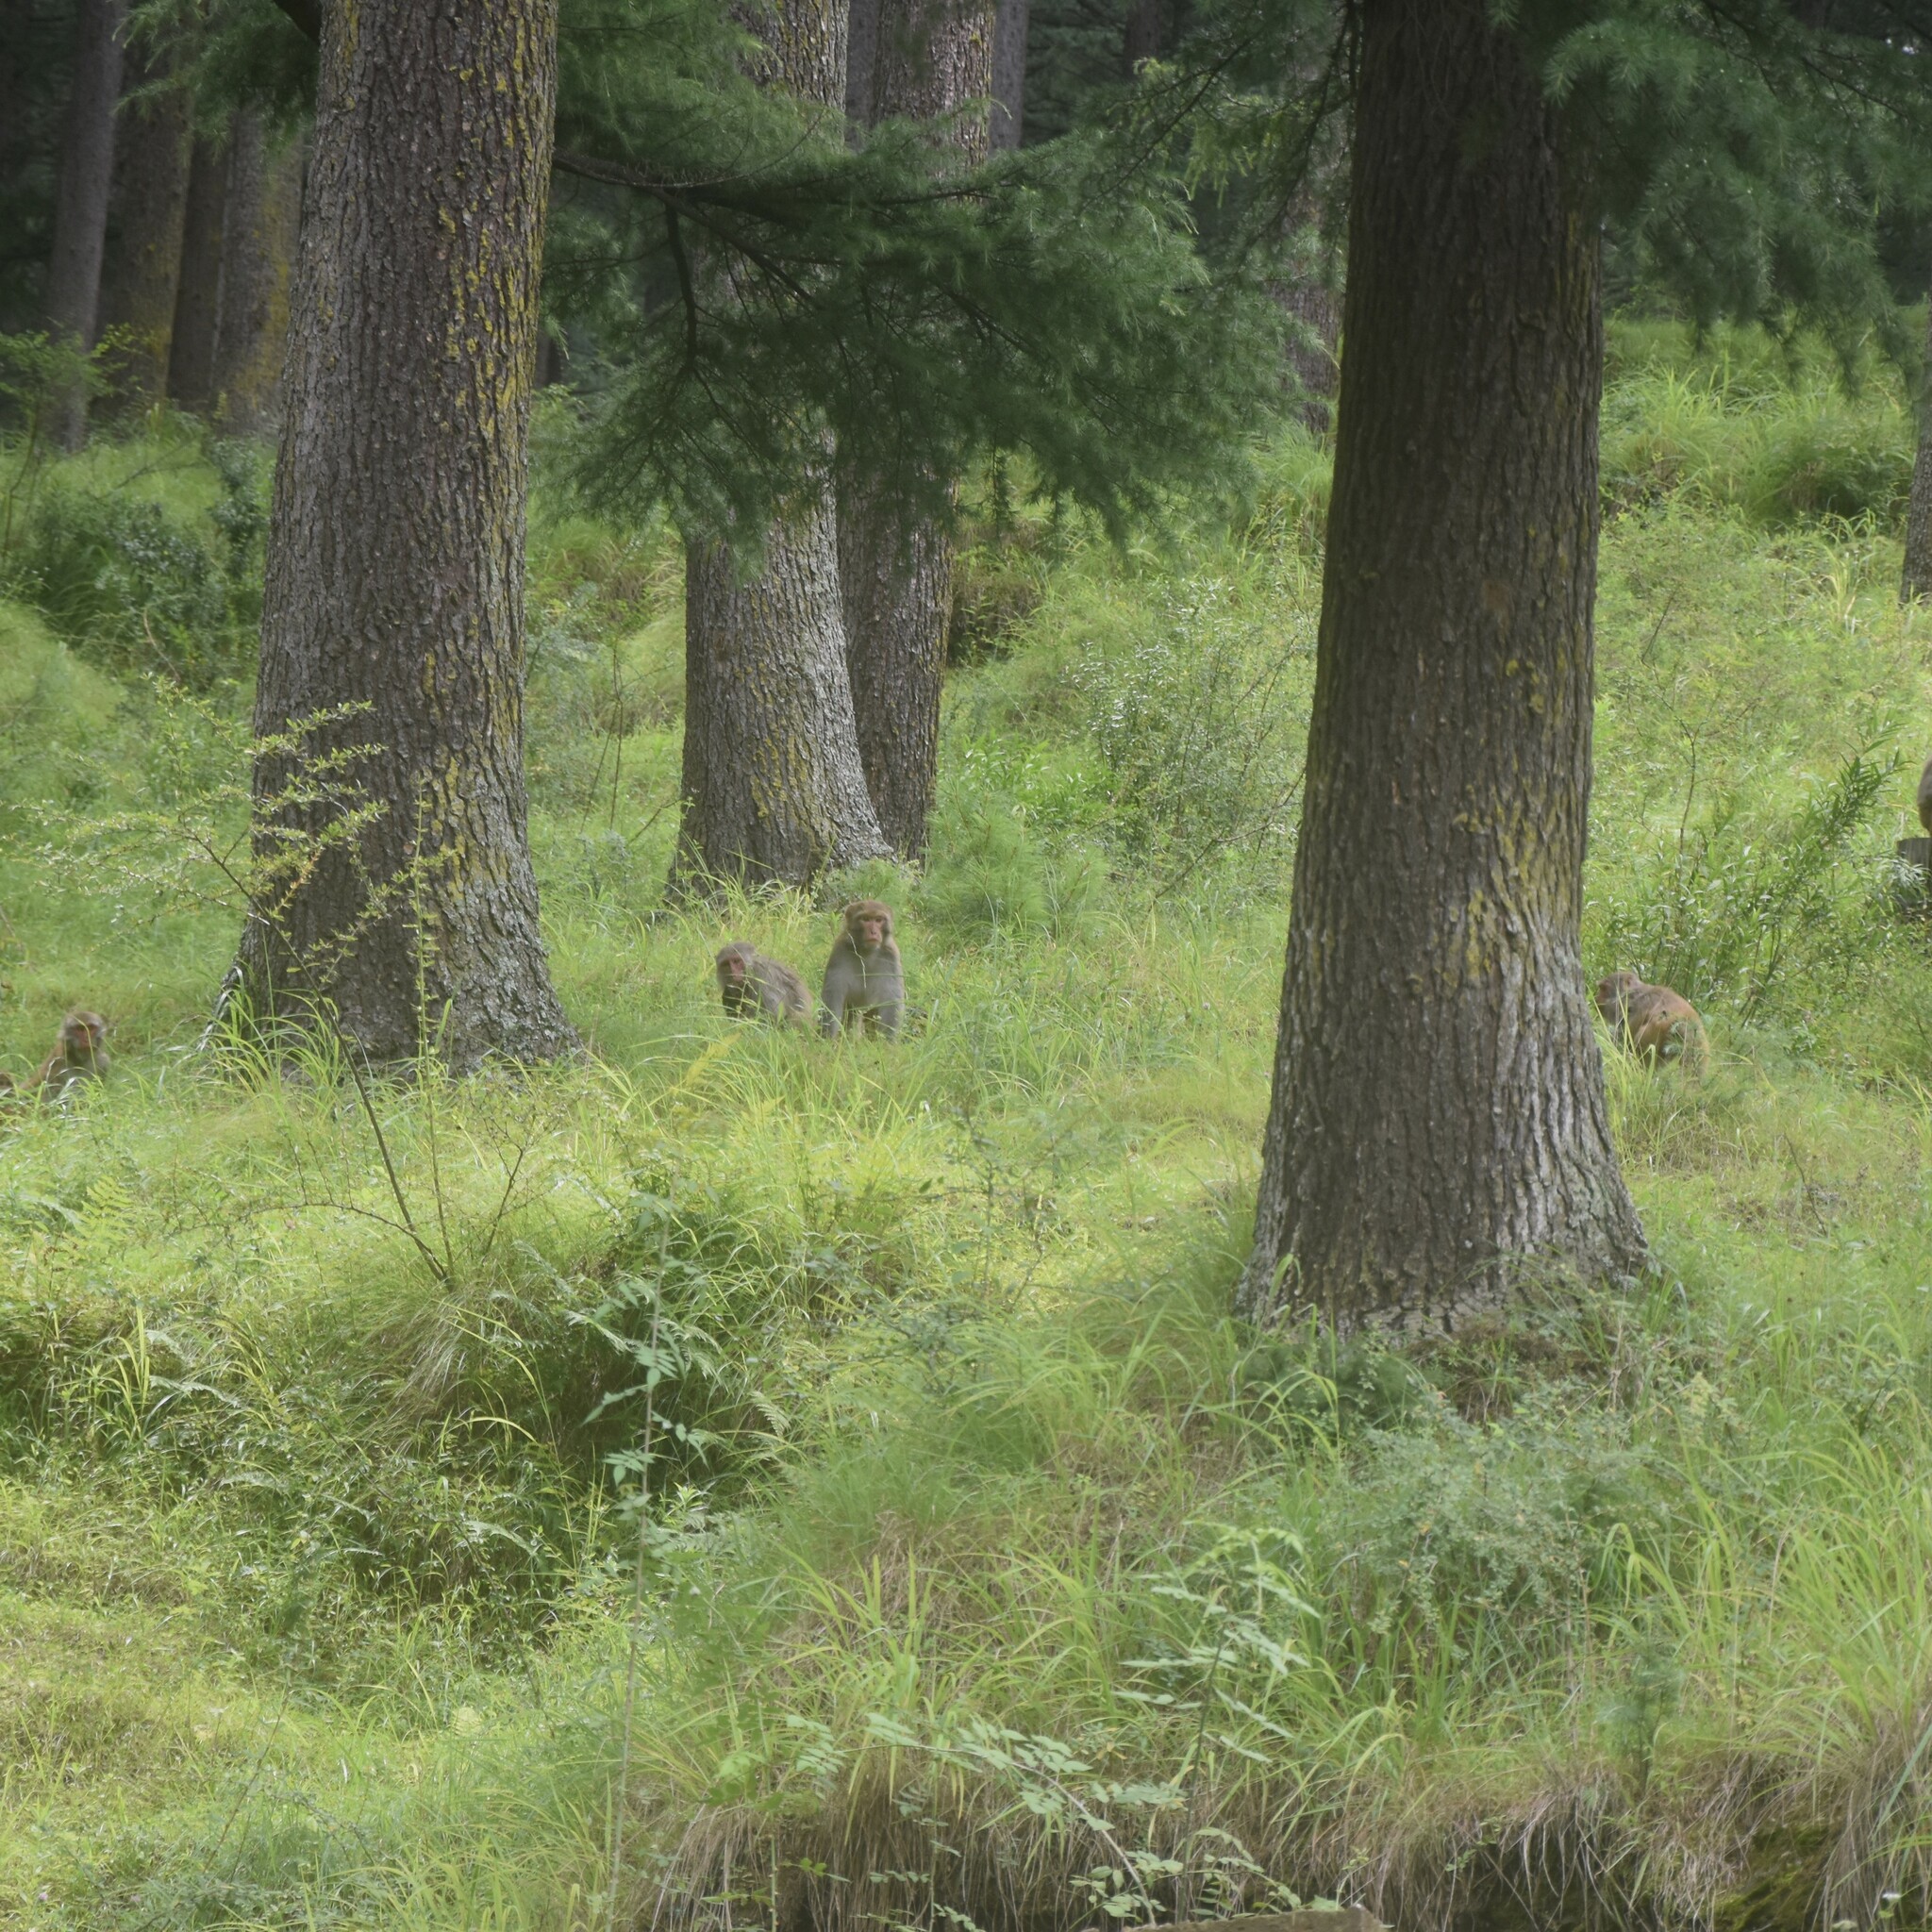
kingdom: Animalia
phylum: Chordata
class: Mammalia
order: Primates
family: Cercopithecidae
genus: Macaca
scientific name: Macaca mulatta
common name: Rhesus monkey
